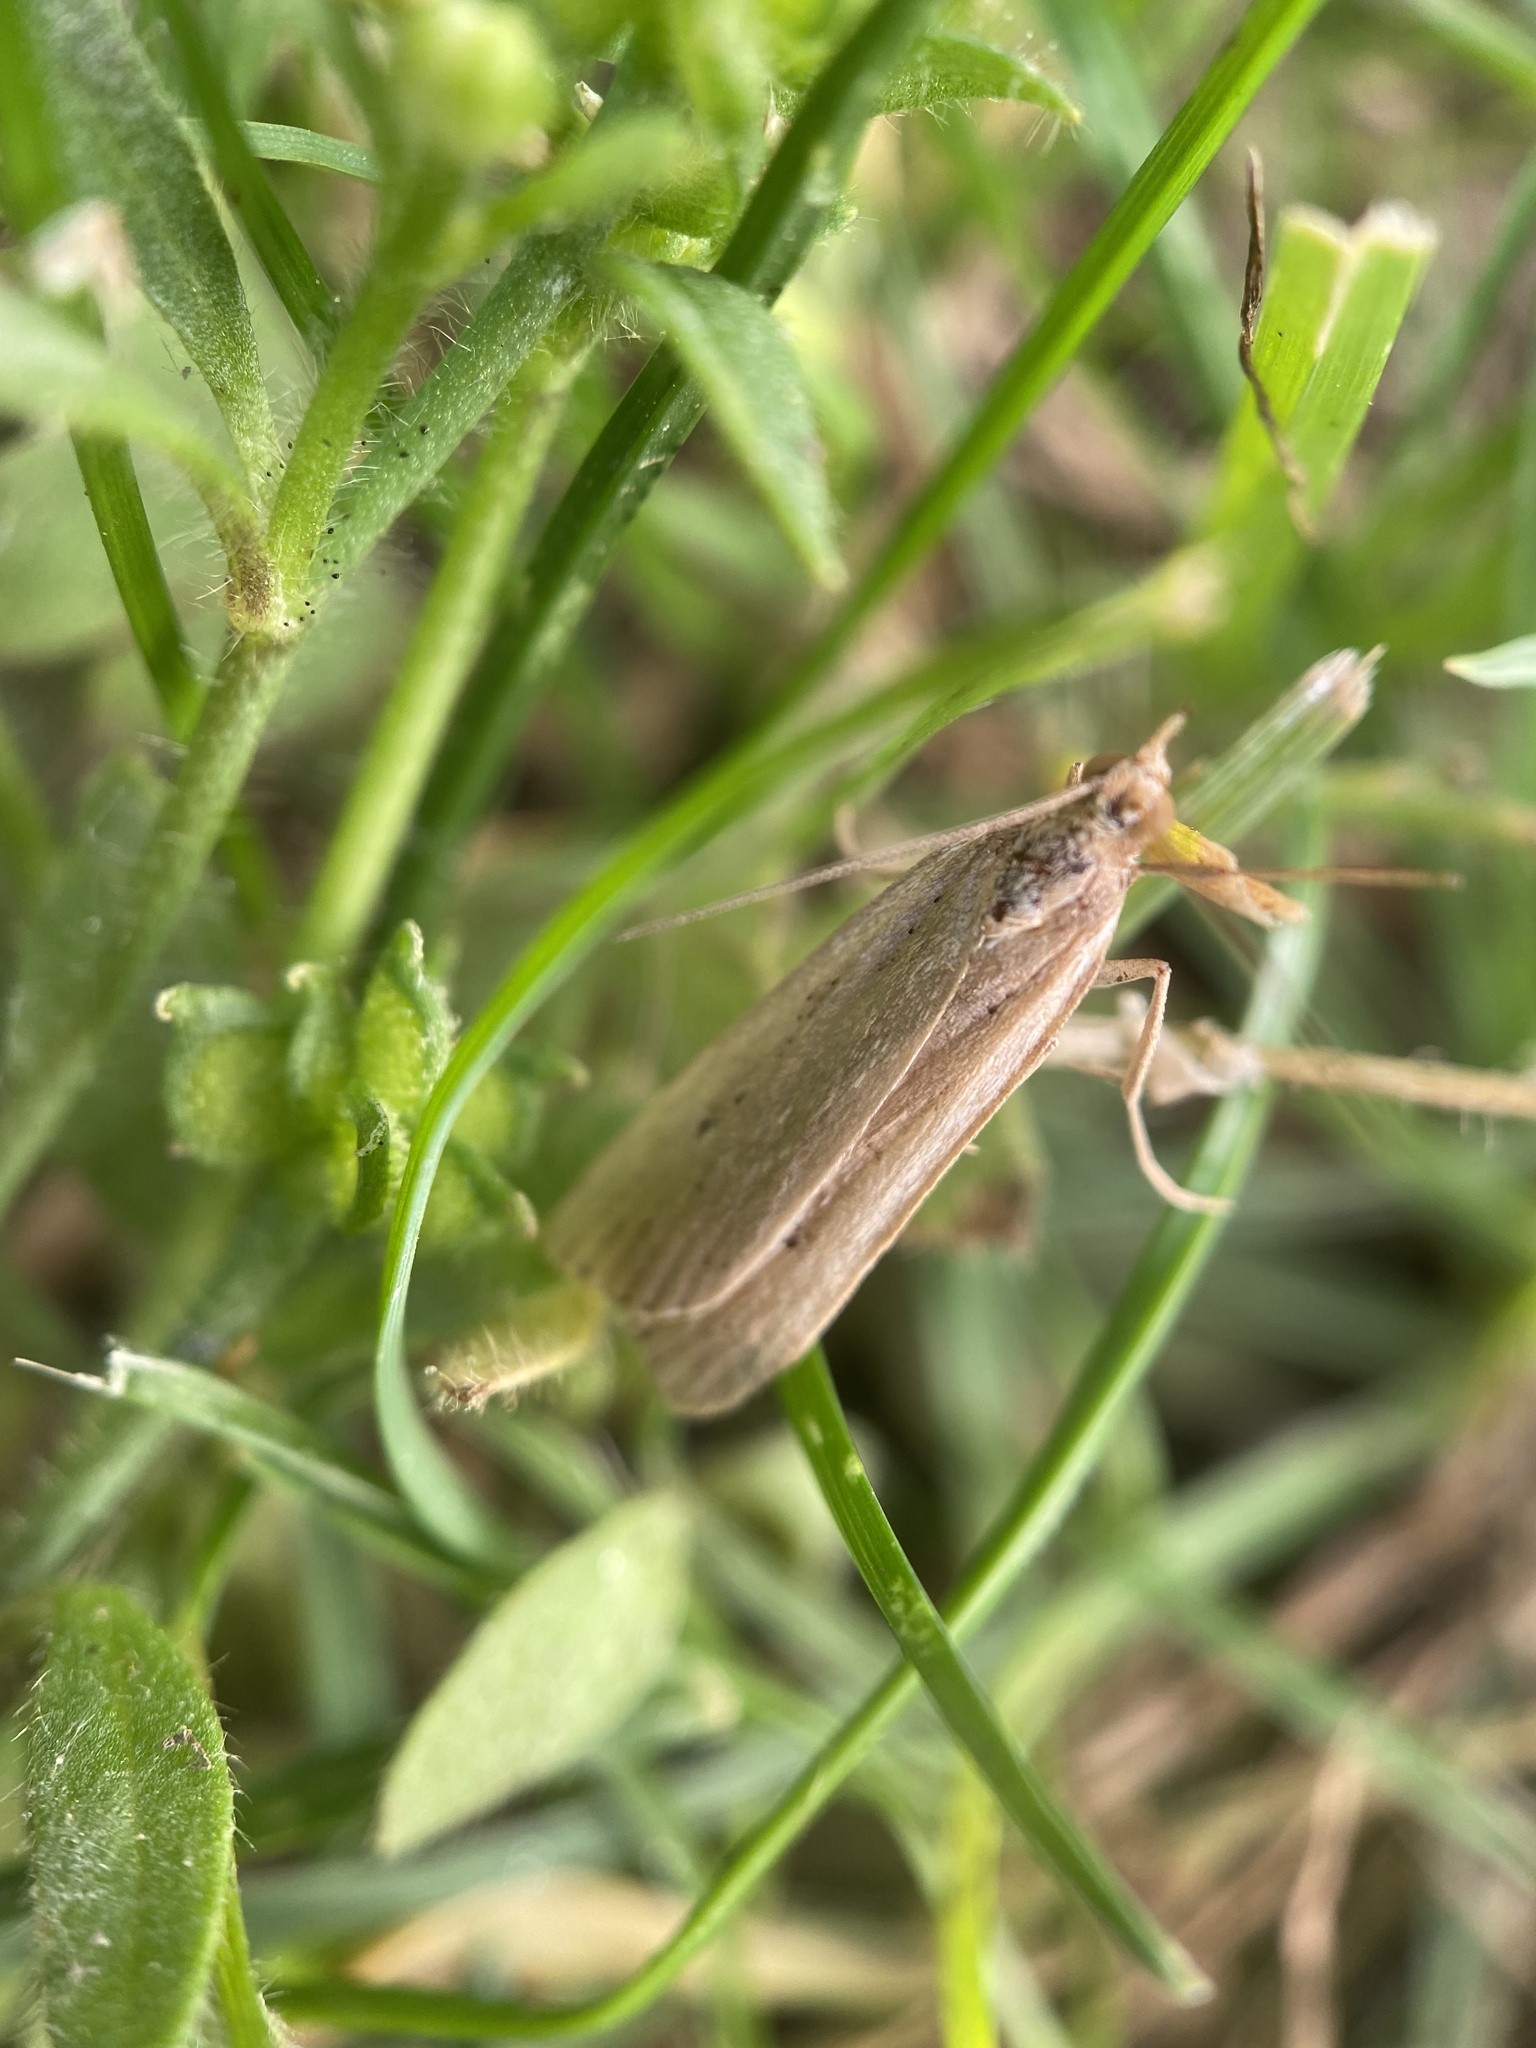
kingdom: Animalia
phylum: Arthropoda
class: Insecta
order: Lepidoptera
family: Crambidae
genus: Eudonia
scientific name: Eudonia sabulosella
